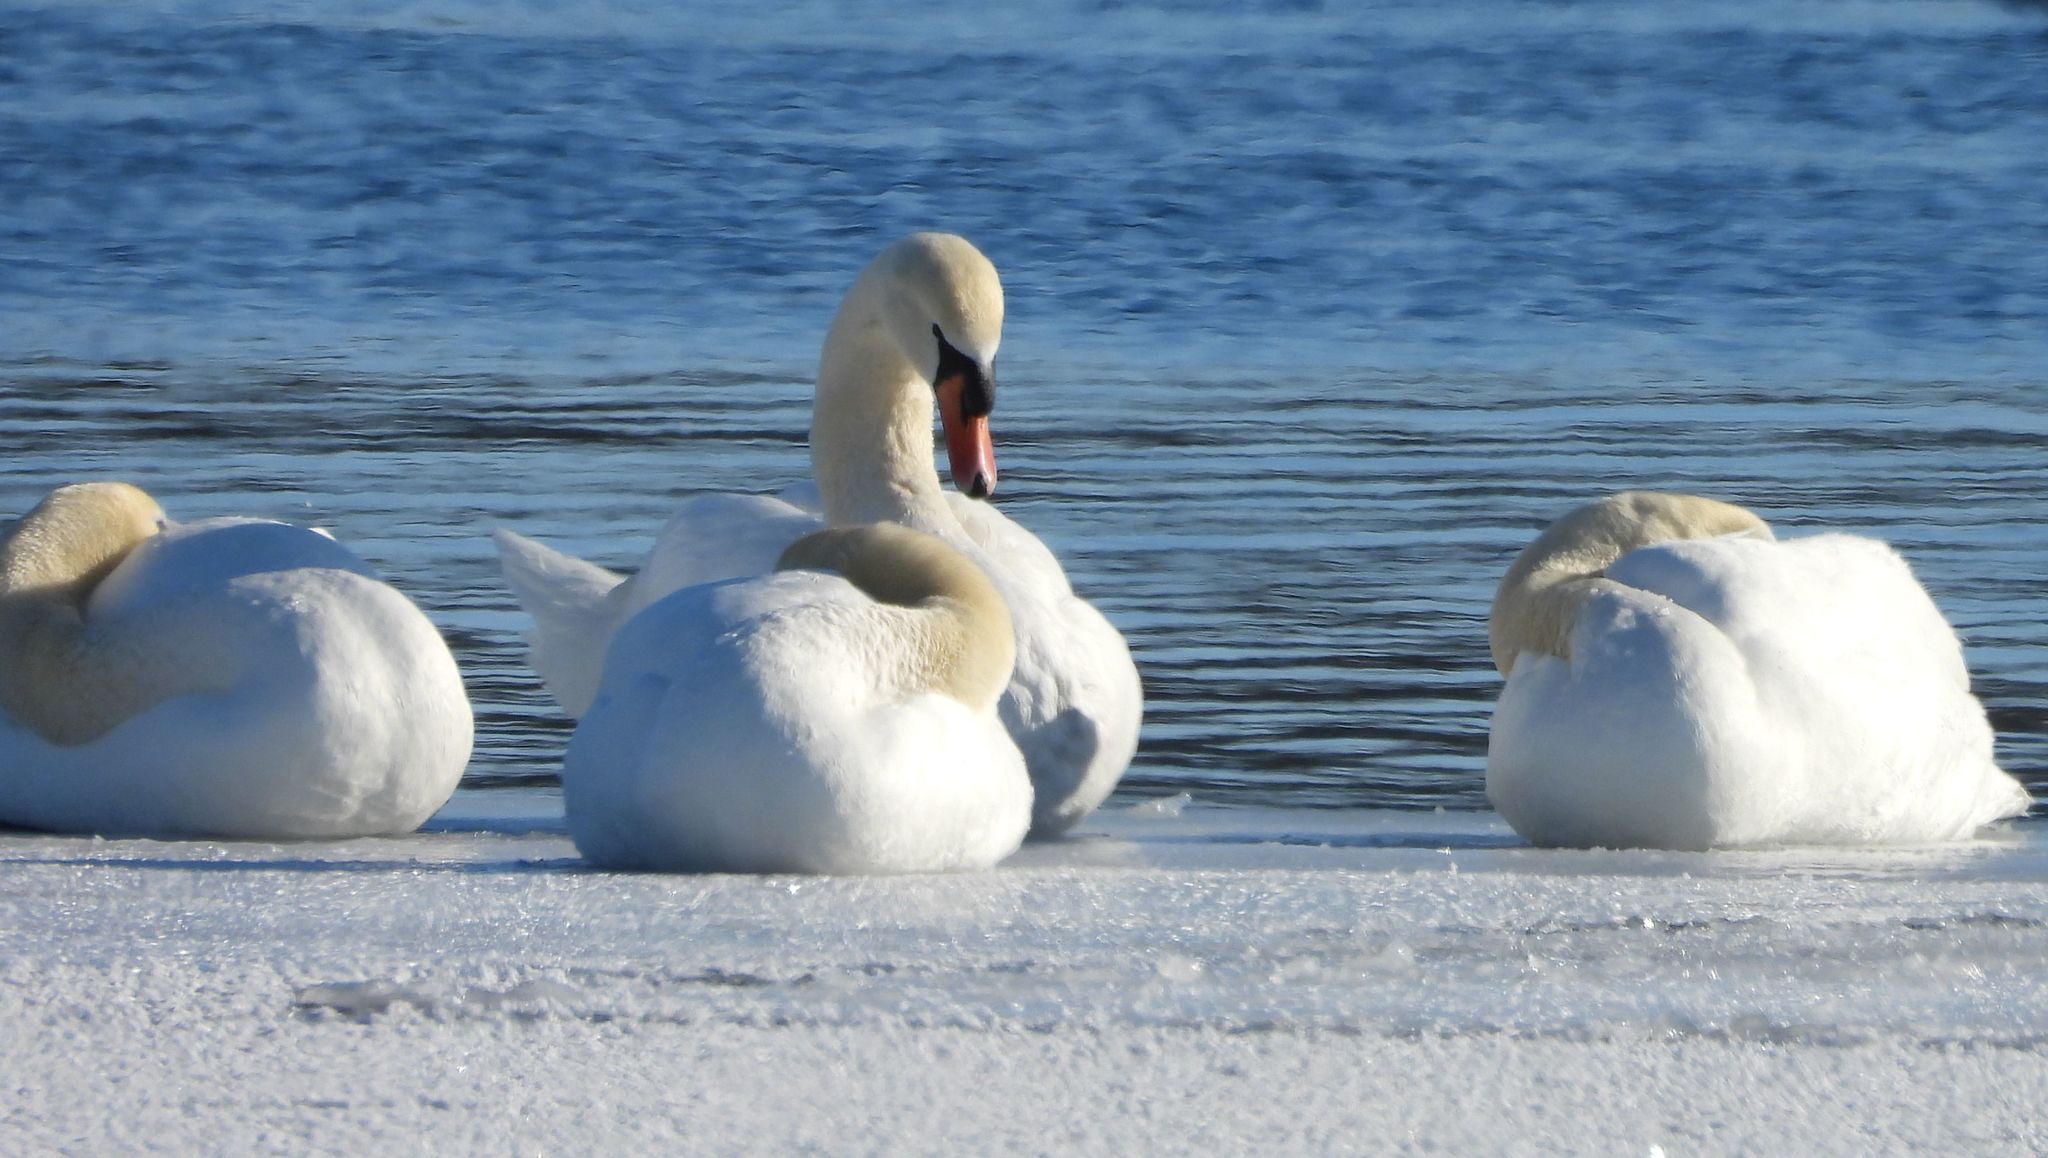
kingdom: Animalia
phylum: Chordata
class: Aves
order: Anseriformes
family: Anatidae
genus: Cygnus
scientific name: Cygnus olor
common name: Mute swan
